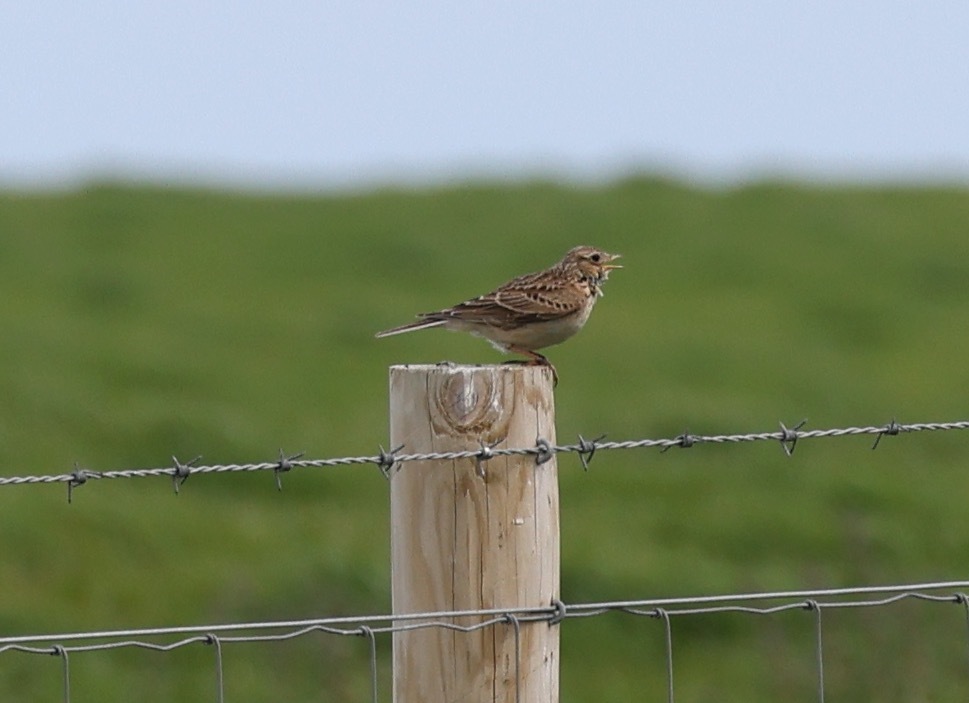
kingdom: Animalia
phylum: Chordata
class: Aves
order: Passeriformes
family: Alaudidae
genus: Alauda
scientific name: Alauda arvensis
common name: Eurasian skylark
